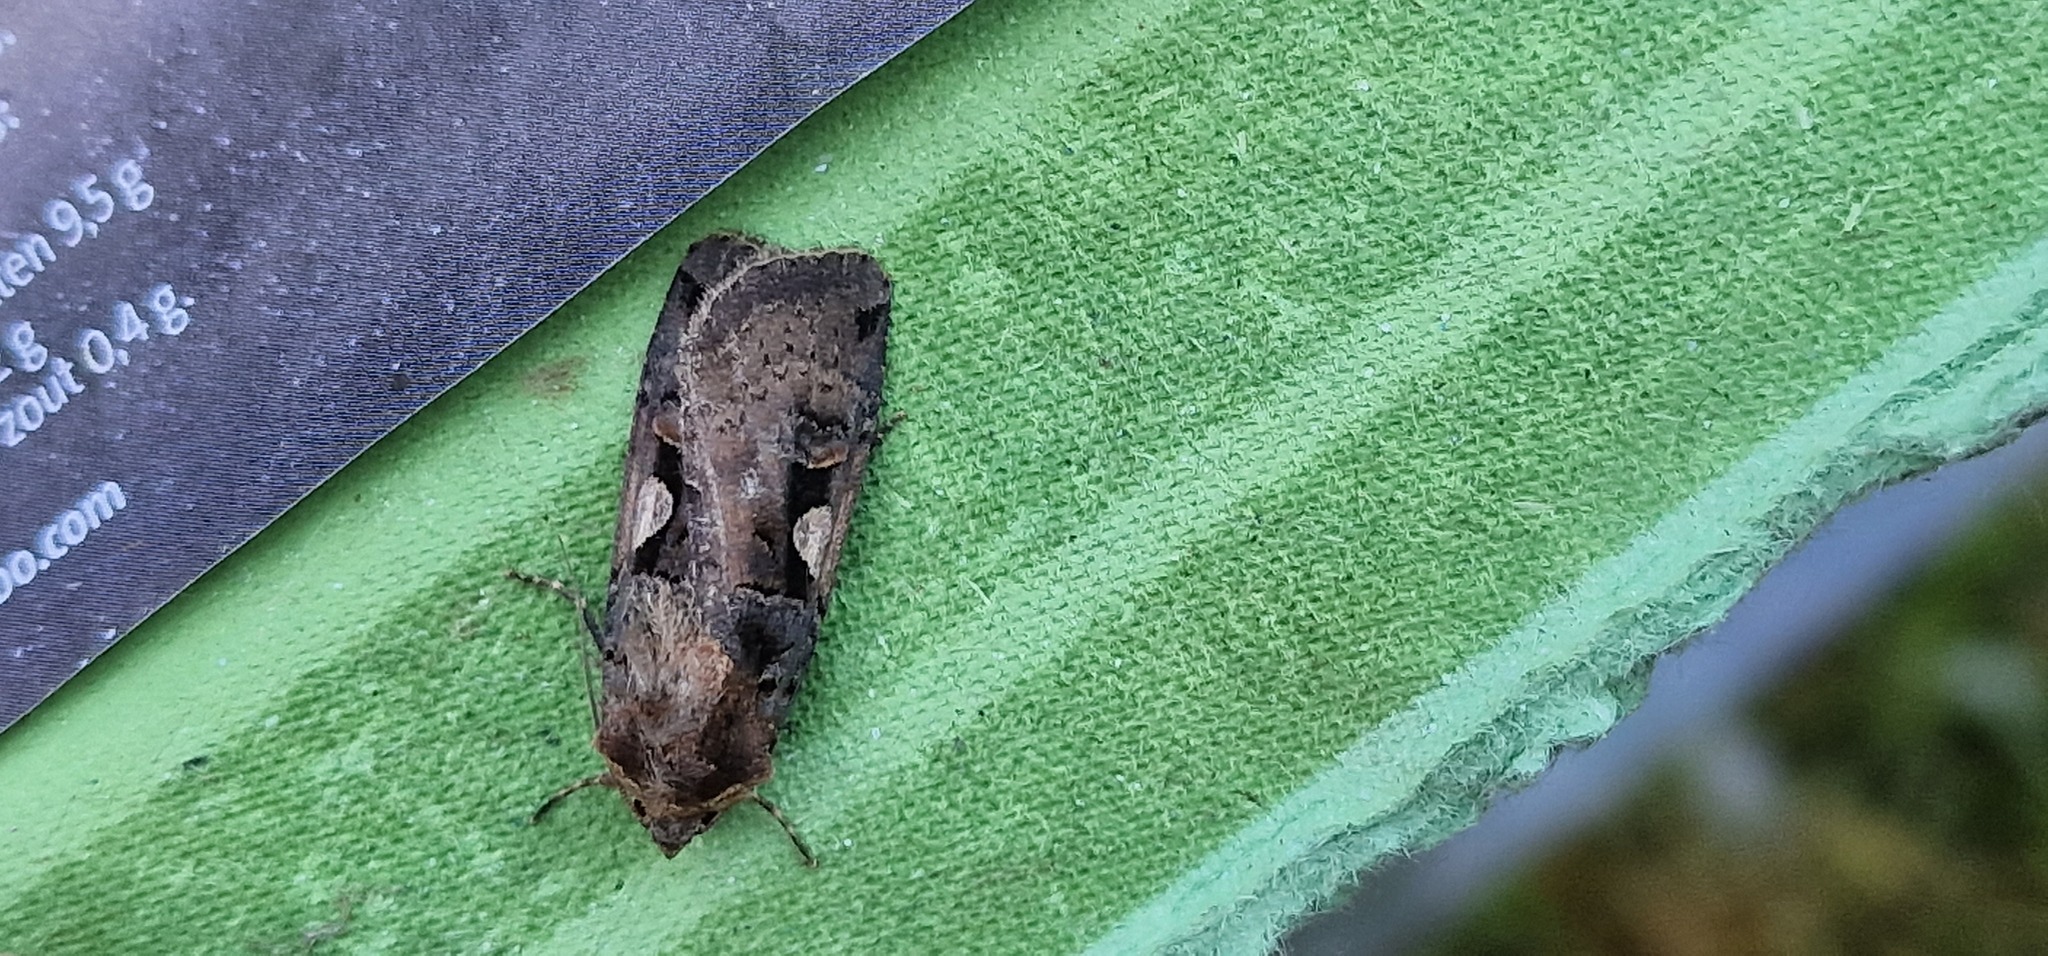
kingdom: Animalia
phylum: Arthropoda
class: Insecta
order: Lepidoptera
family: Noctuidae
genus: Xestia
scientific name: Xestia c-nigrum
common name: Setaceous hebrew character
